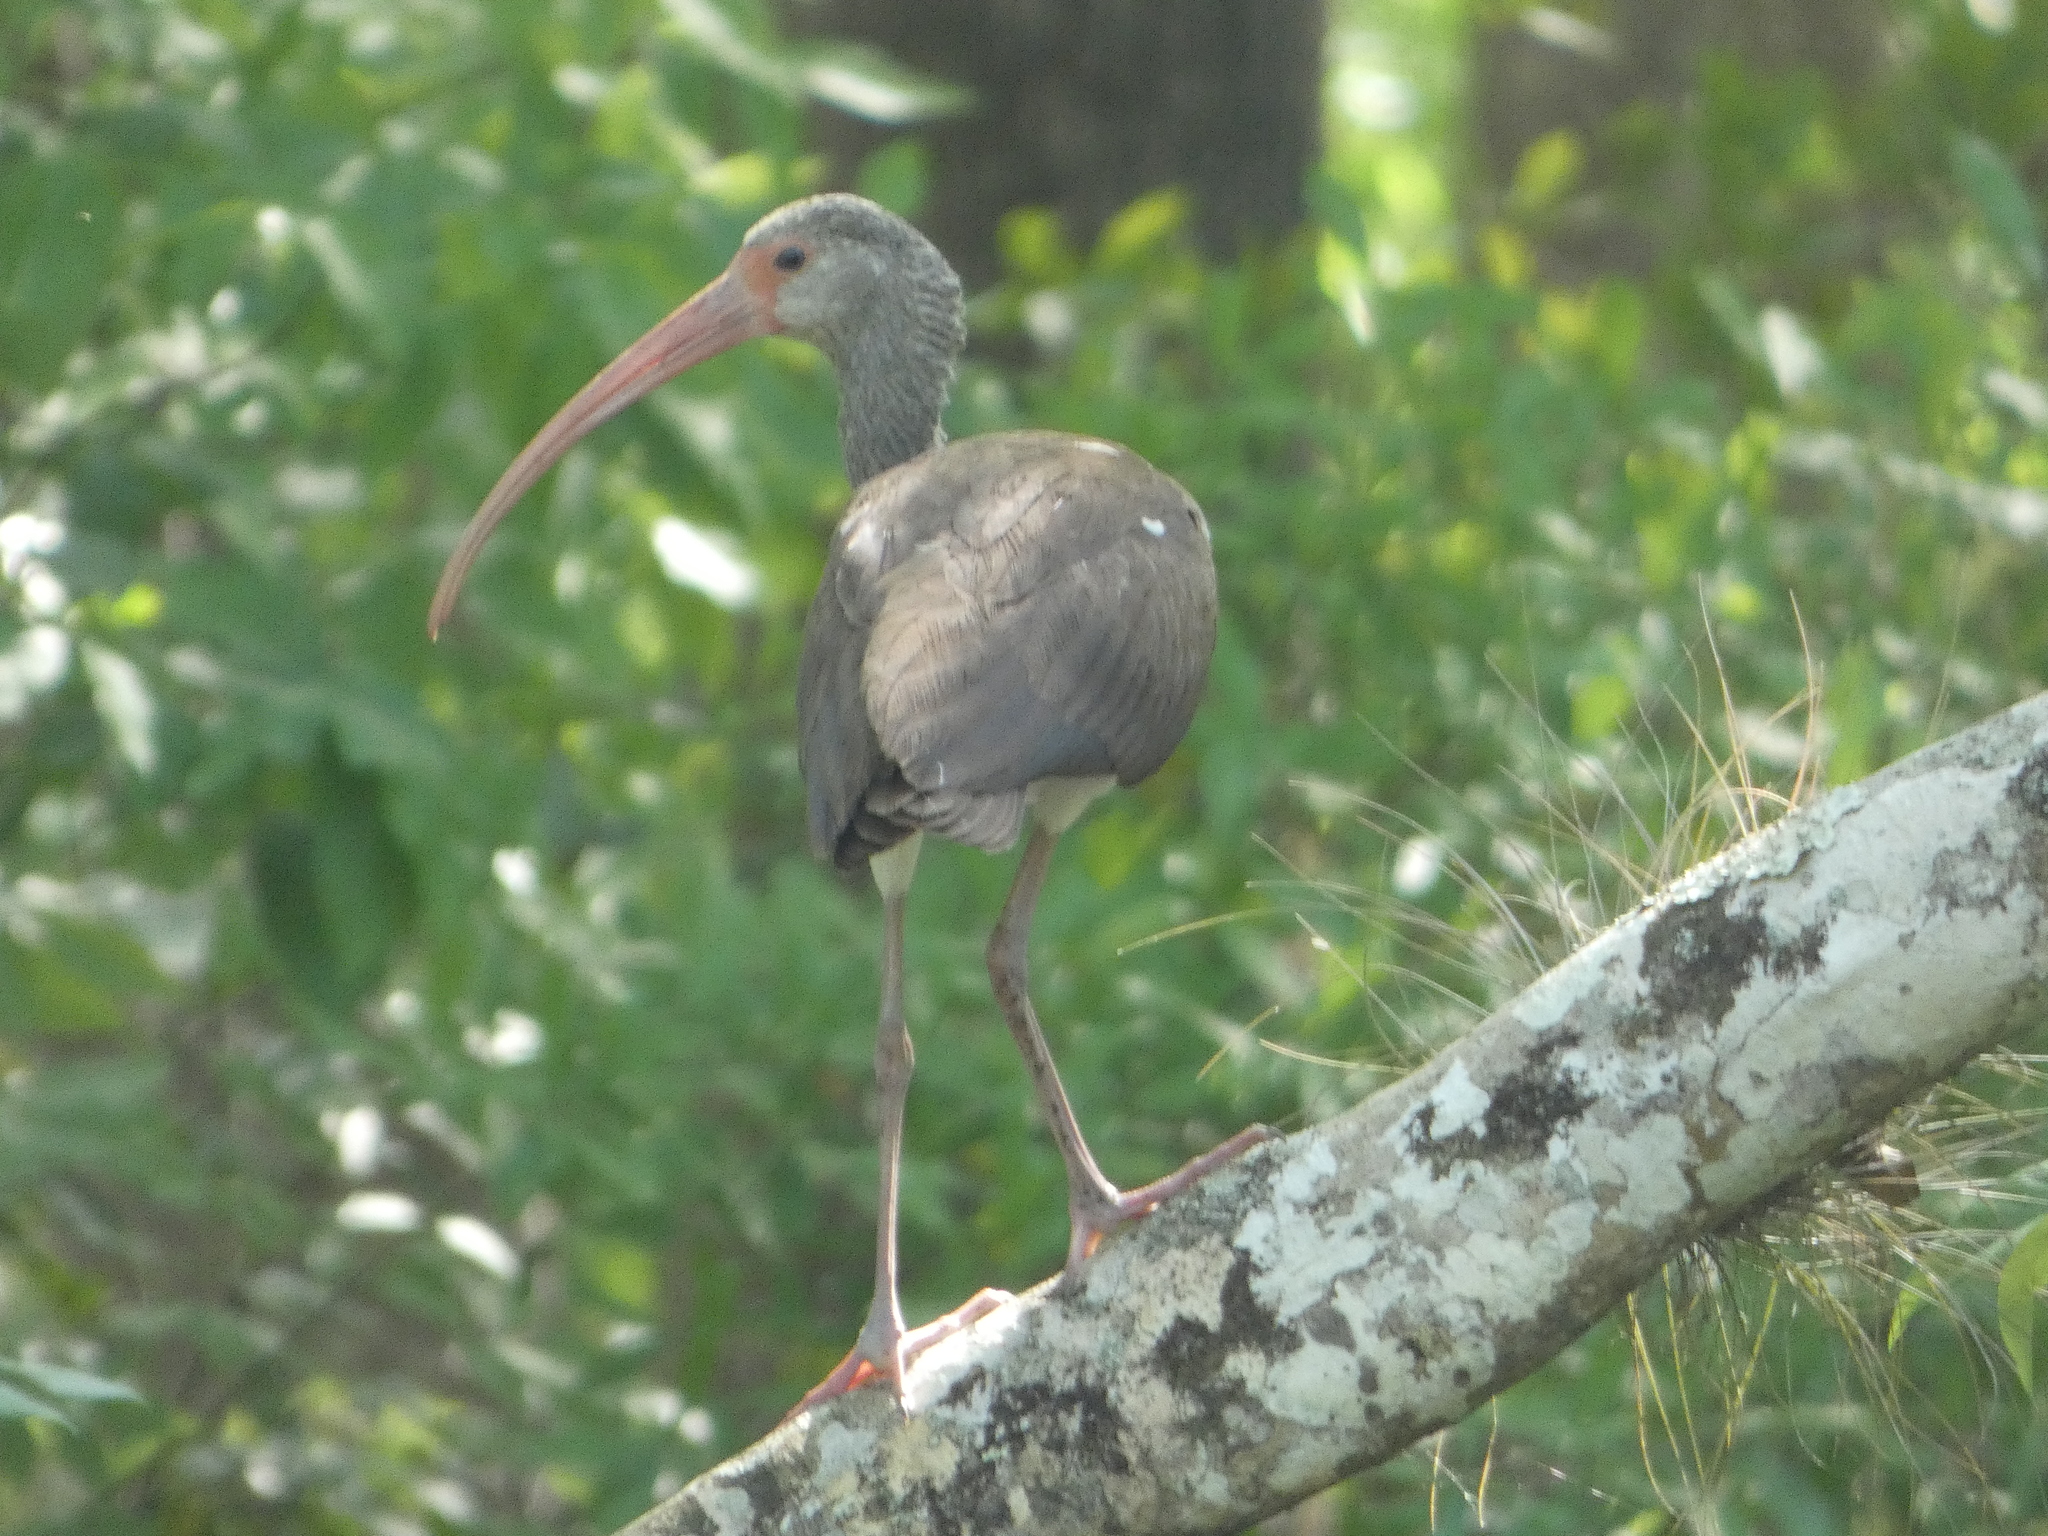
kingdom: Animalia
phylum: Chordata
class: Aves
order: Pelecaniformes
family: Threskiornithidae
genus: Eudocimus
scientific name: Eudocimus albus
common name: White ibis
